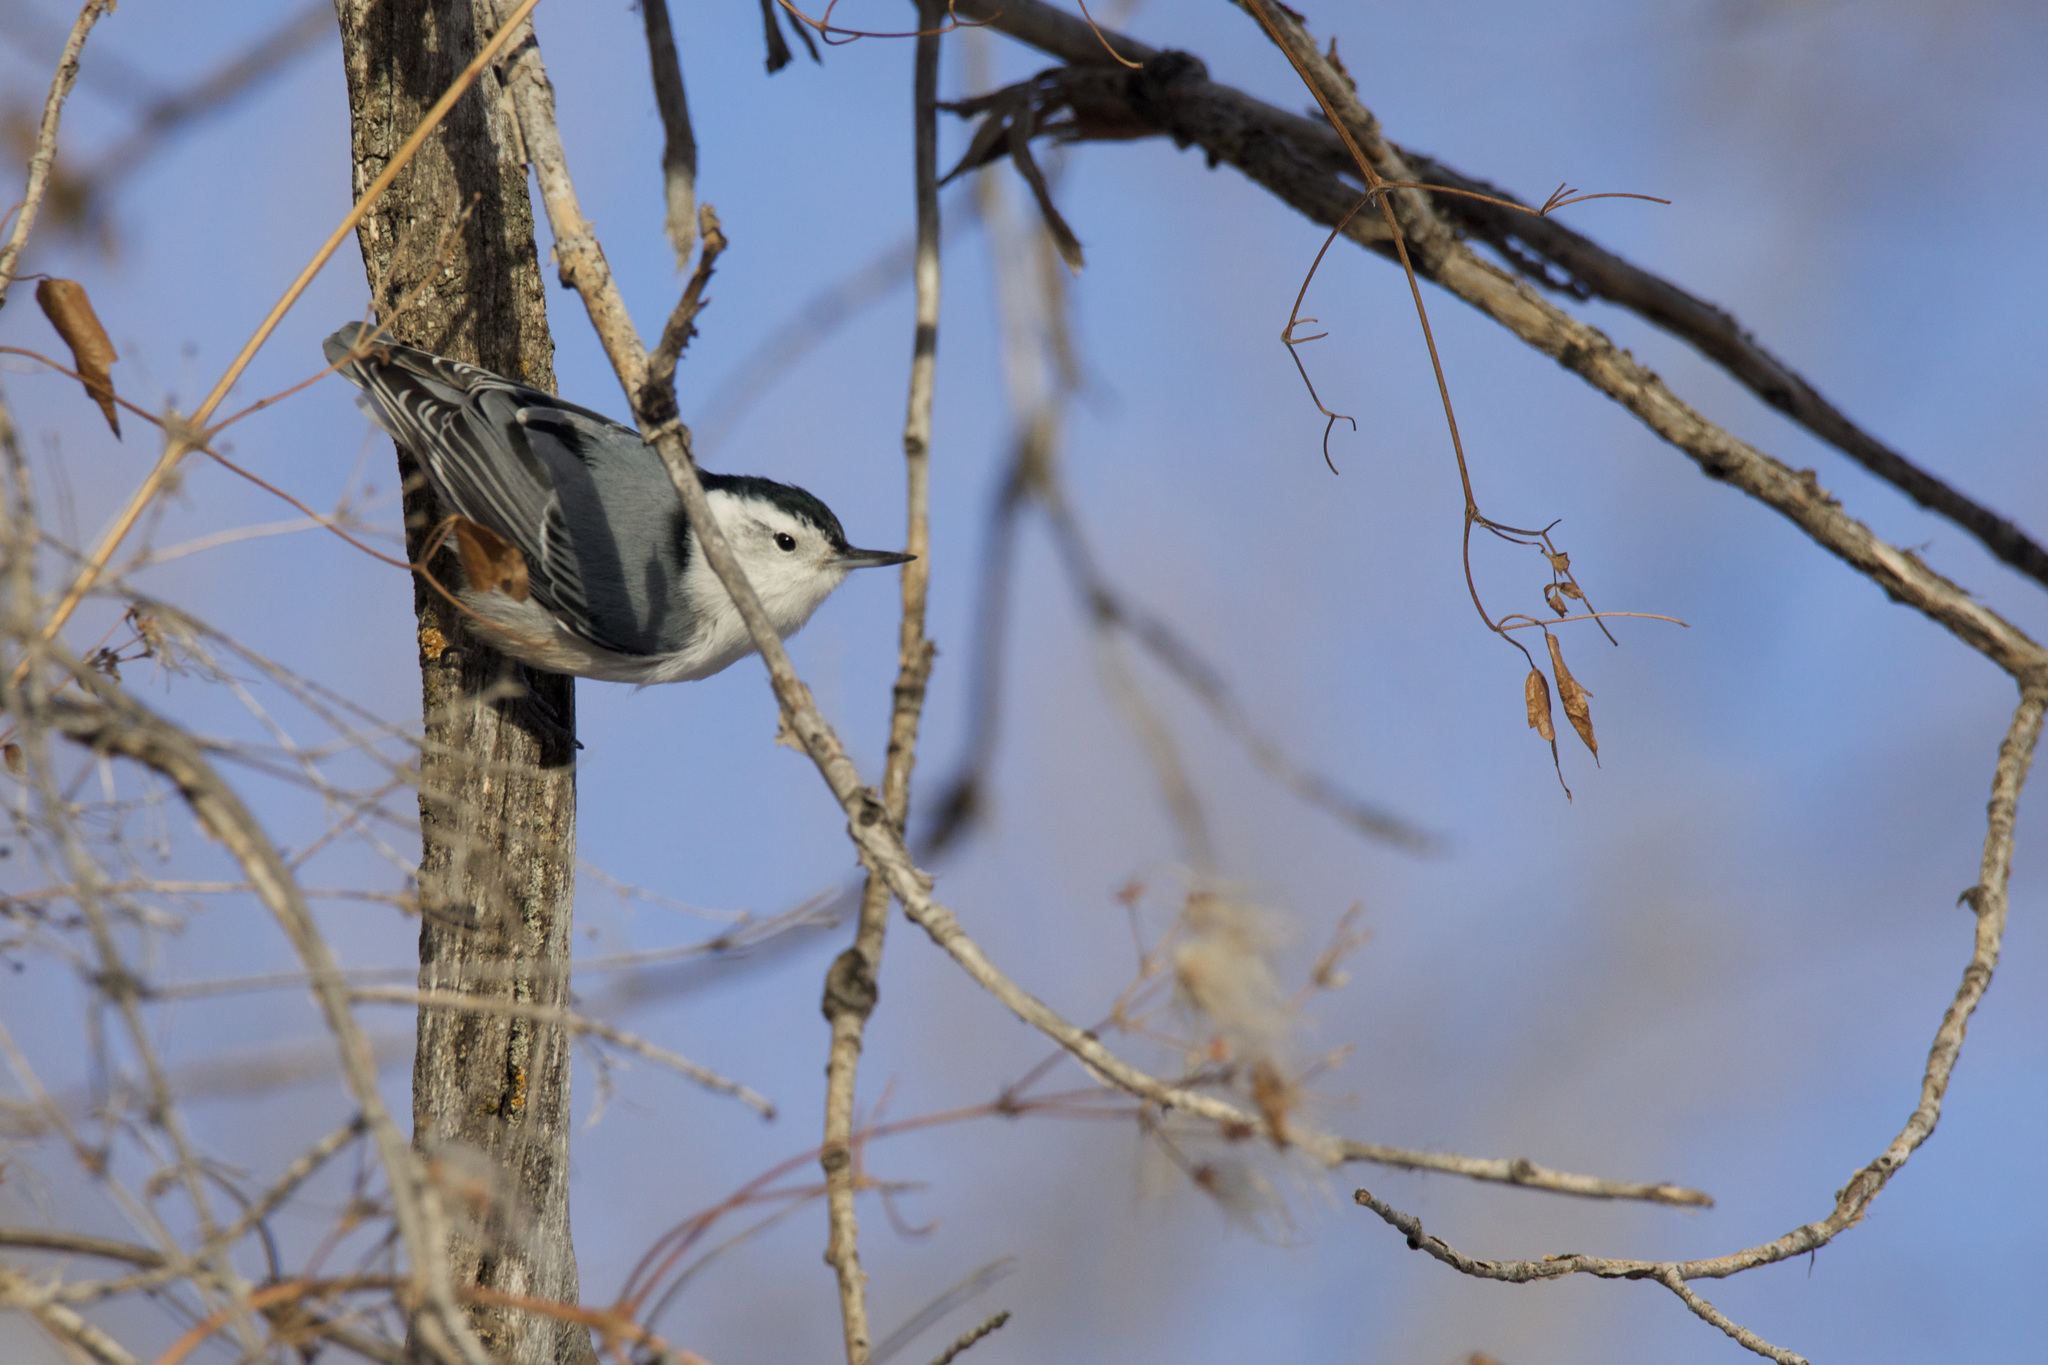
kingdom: Animalia
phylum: Chordata
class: Aves
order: Passeriformes
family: Sittidae
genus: Sitta
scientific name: Sitta carolinensis
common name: White-breasted nuthatch
